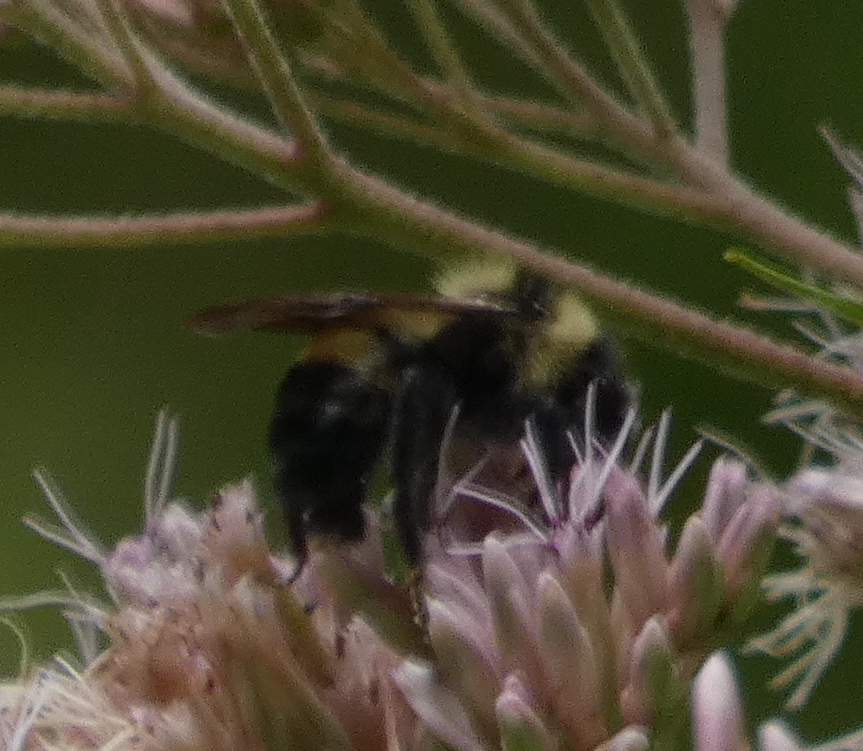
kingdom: Animalia
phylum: Arthropoda
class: Insecta
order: Hymenoptera
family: Apidae
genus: Bombus
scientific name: Bombus citrinus
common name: Lemon cuckoo bumble bee
